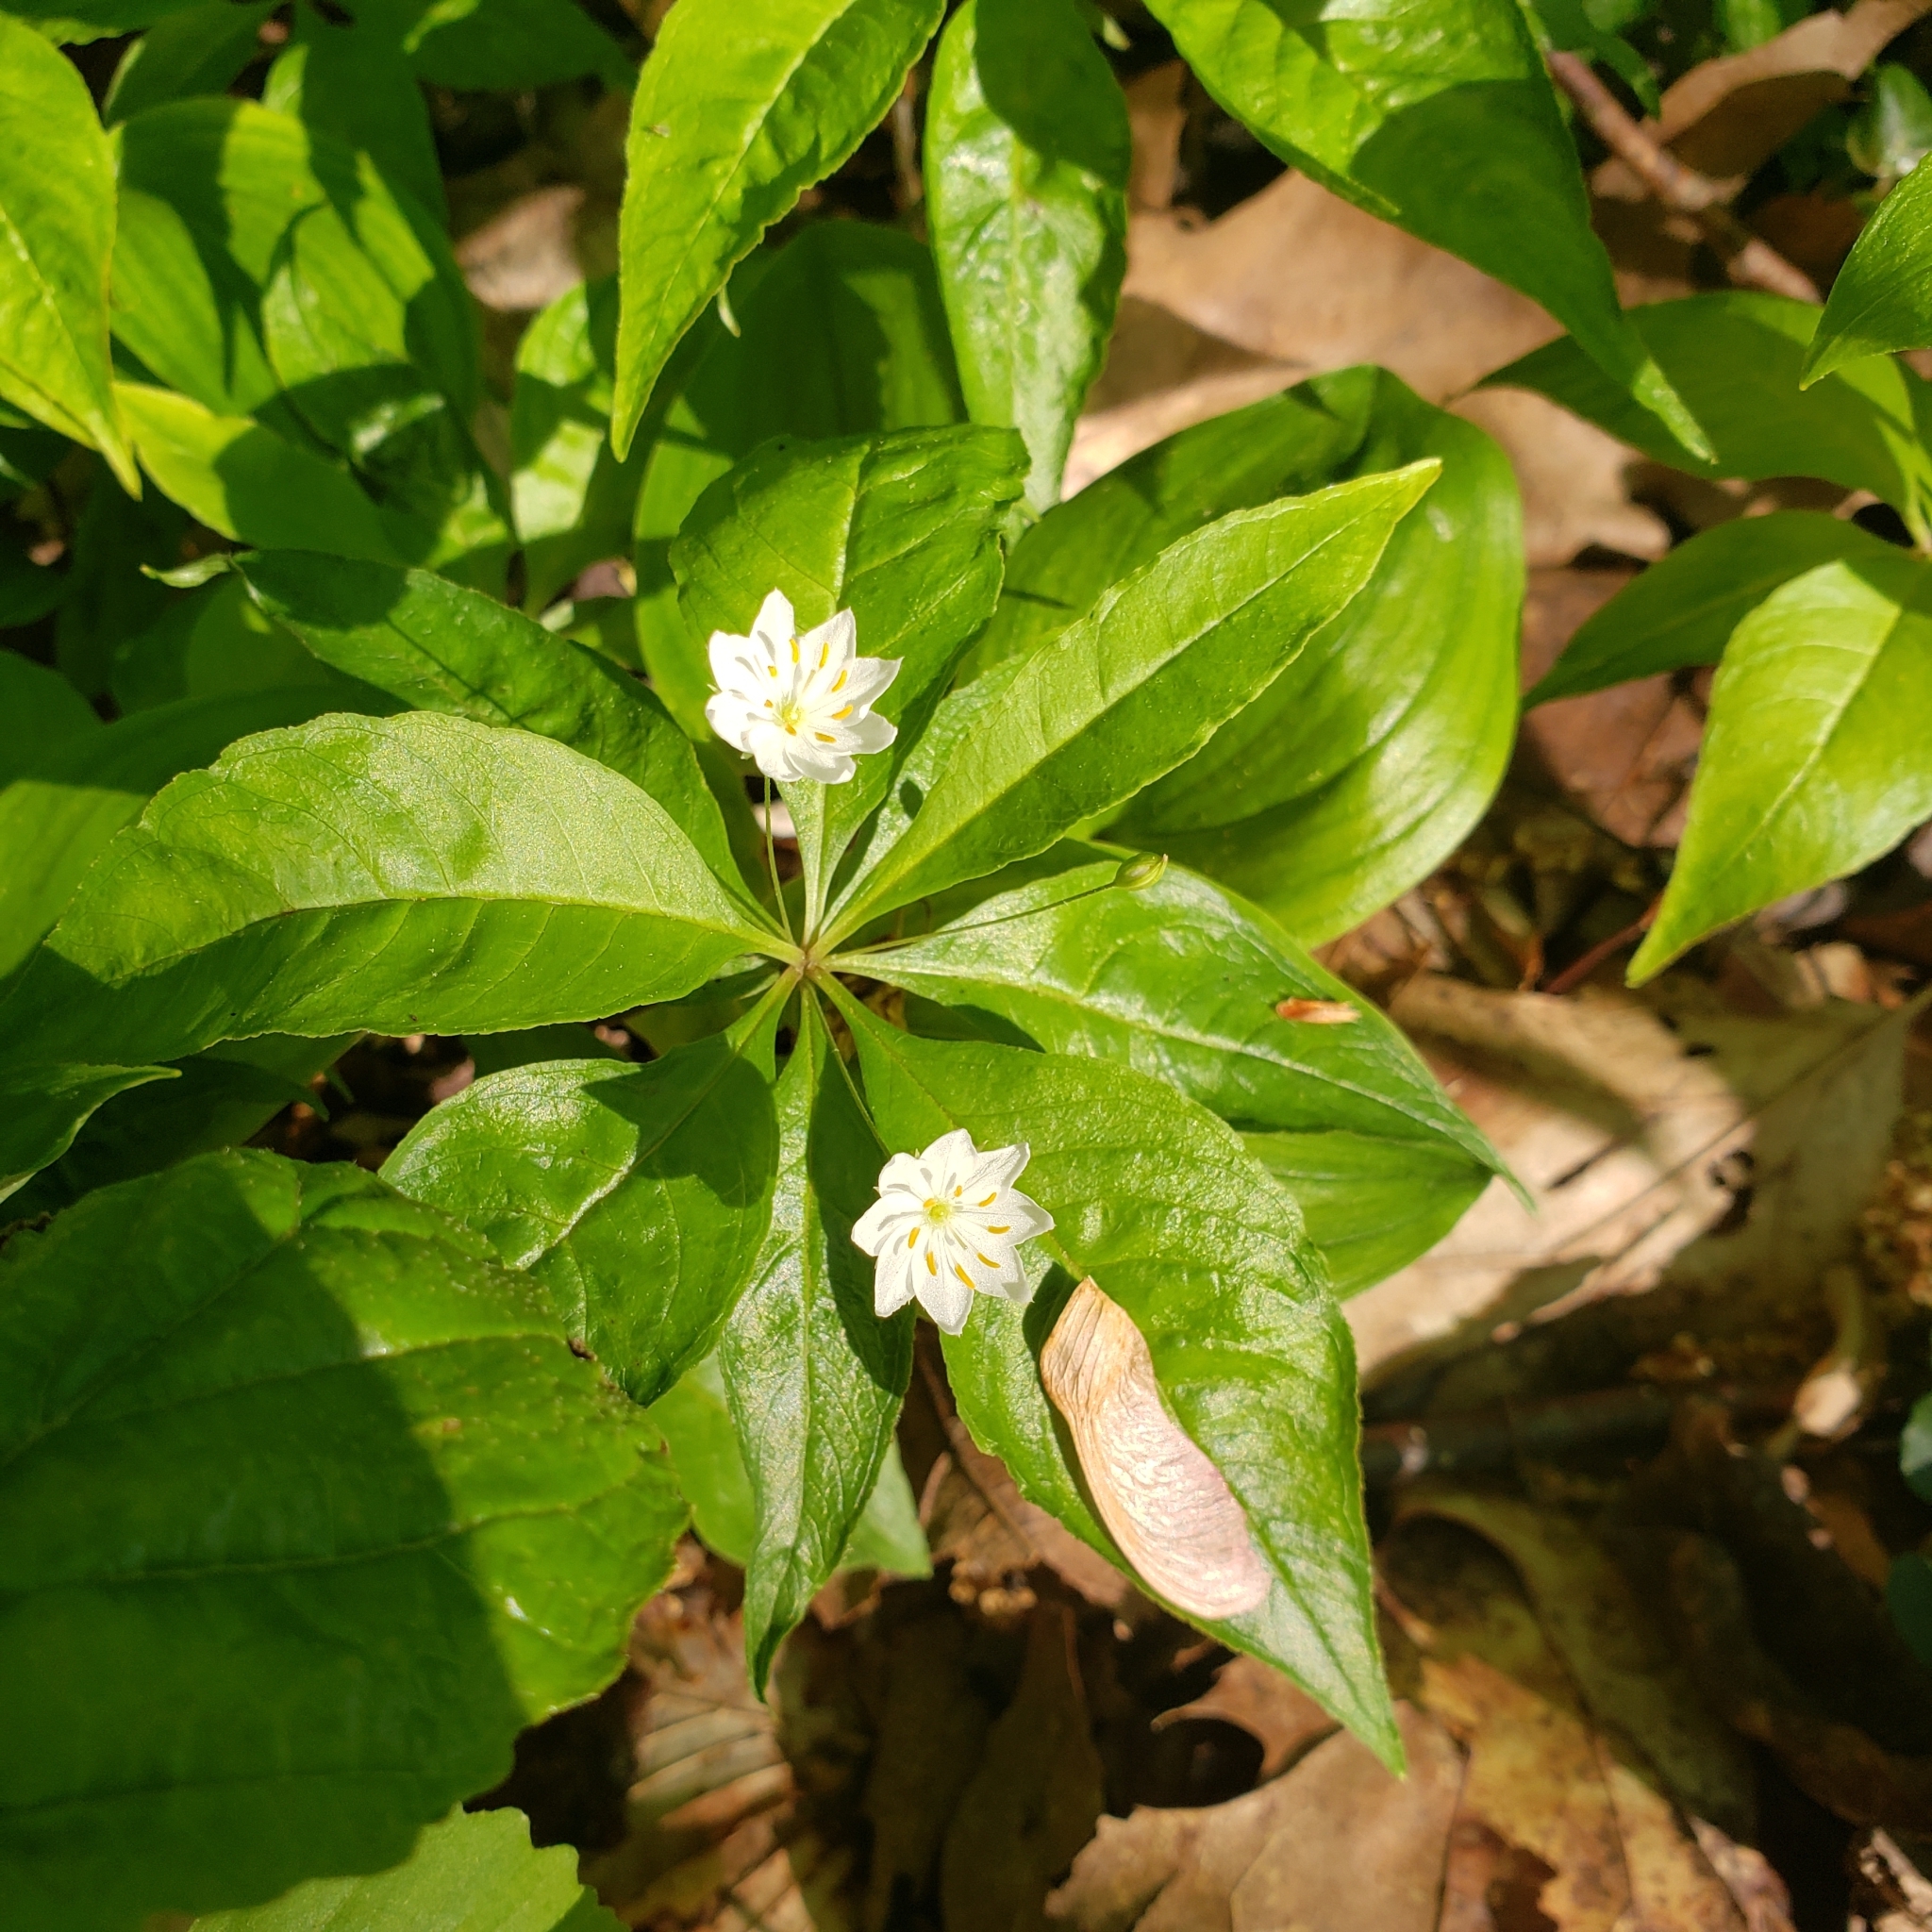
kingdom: Plantae
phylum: Tracheophyta
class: Magnoliopsida
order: Ericales
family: Primulaceae
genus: Lysimachia
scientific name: Lysimachia borealis
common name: American starflower
